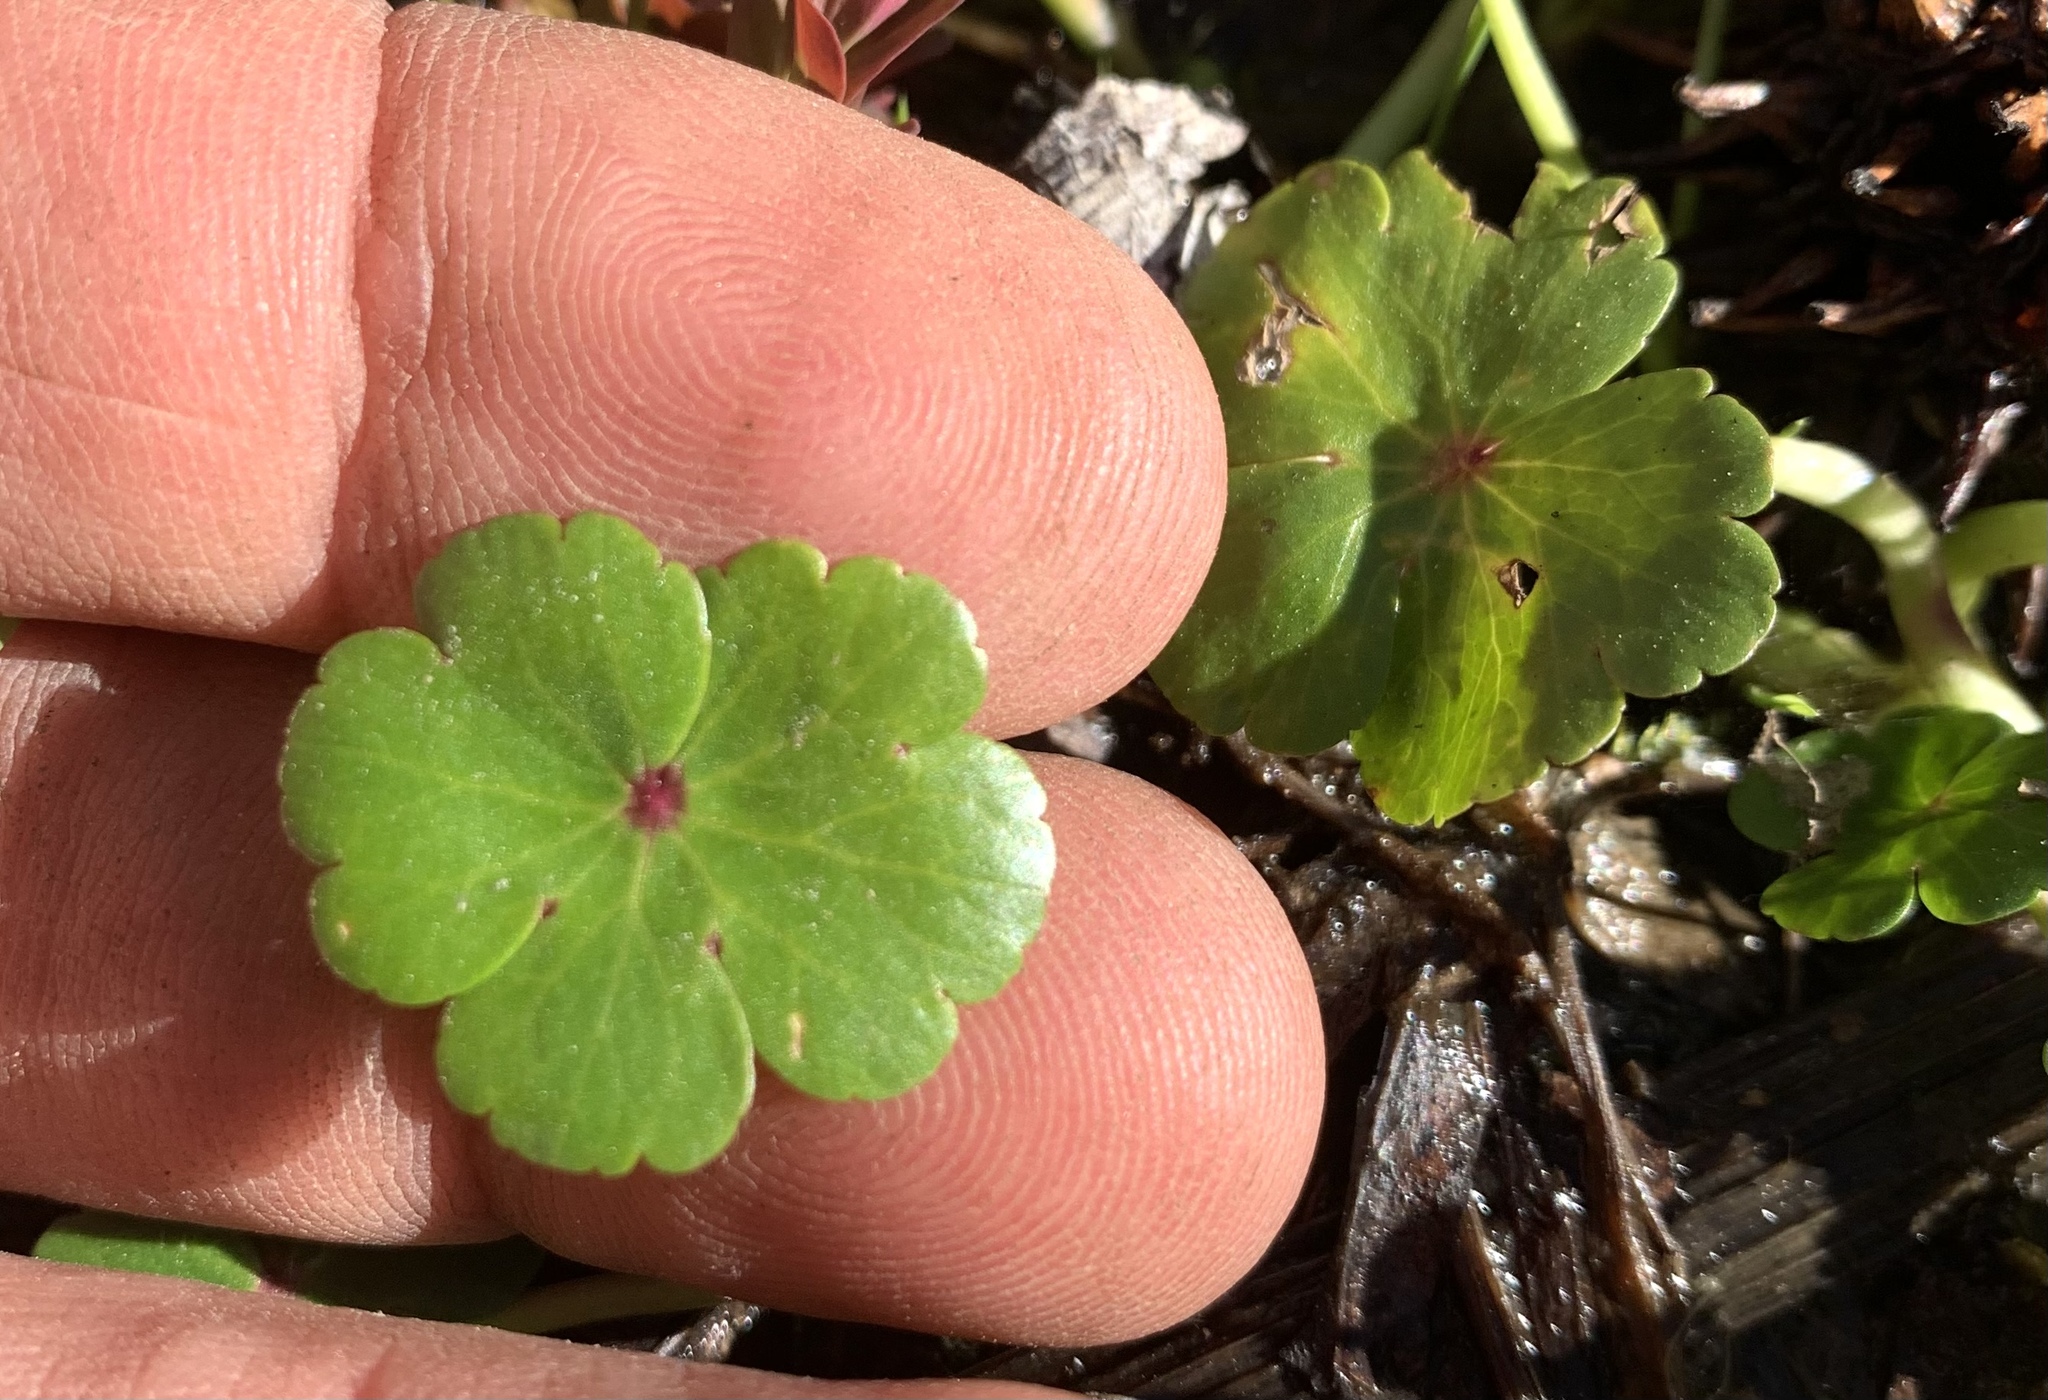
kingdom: Plantae
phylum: Tracheophyta
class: Magnoliopsida
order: Apiales
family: Araliaceae
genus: Hydrocotyle
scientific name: Hydrocotyle ranunculoides
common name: Floating pennywort
